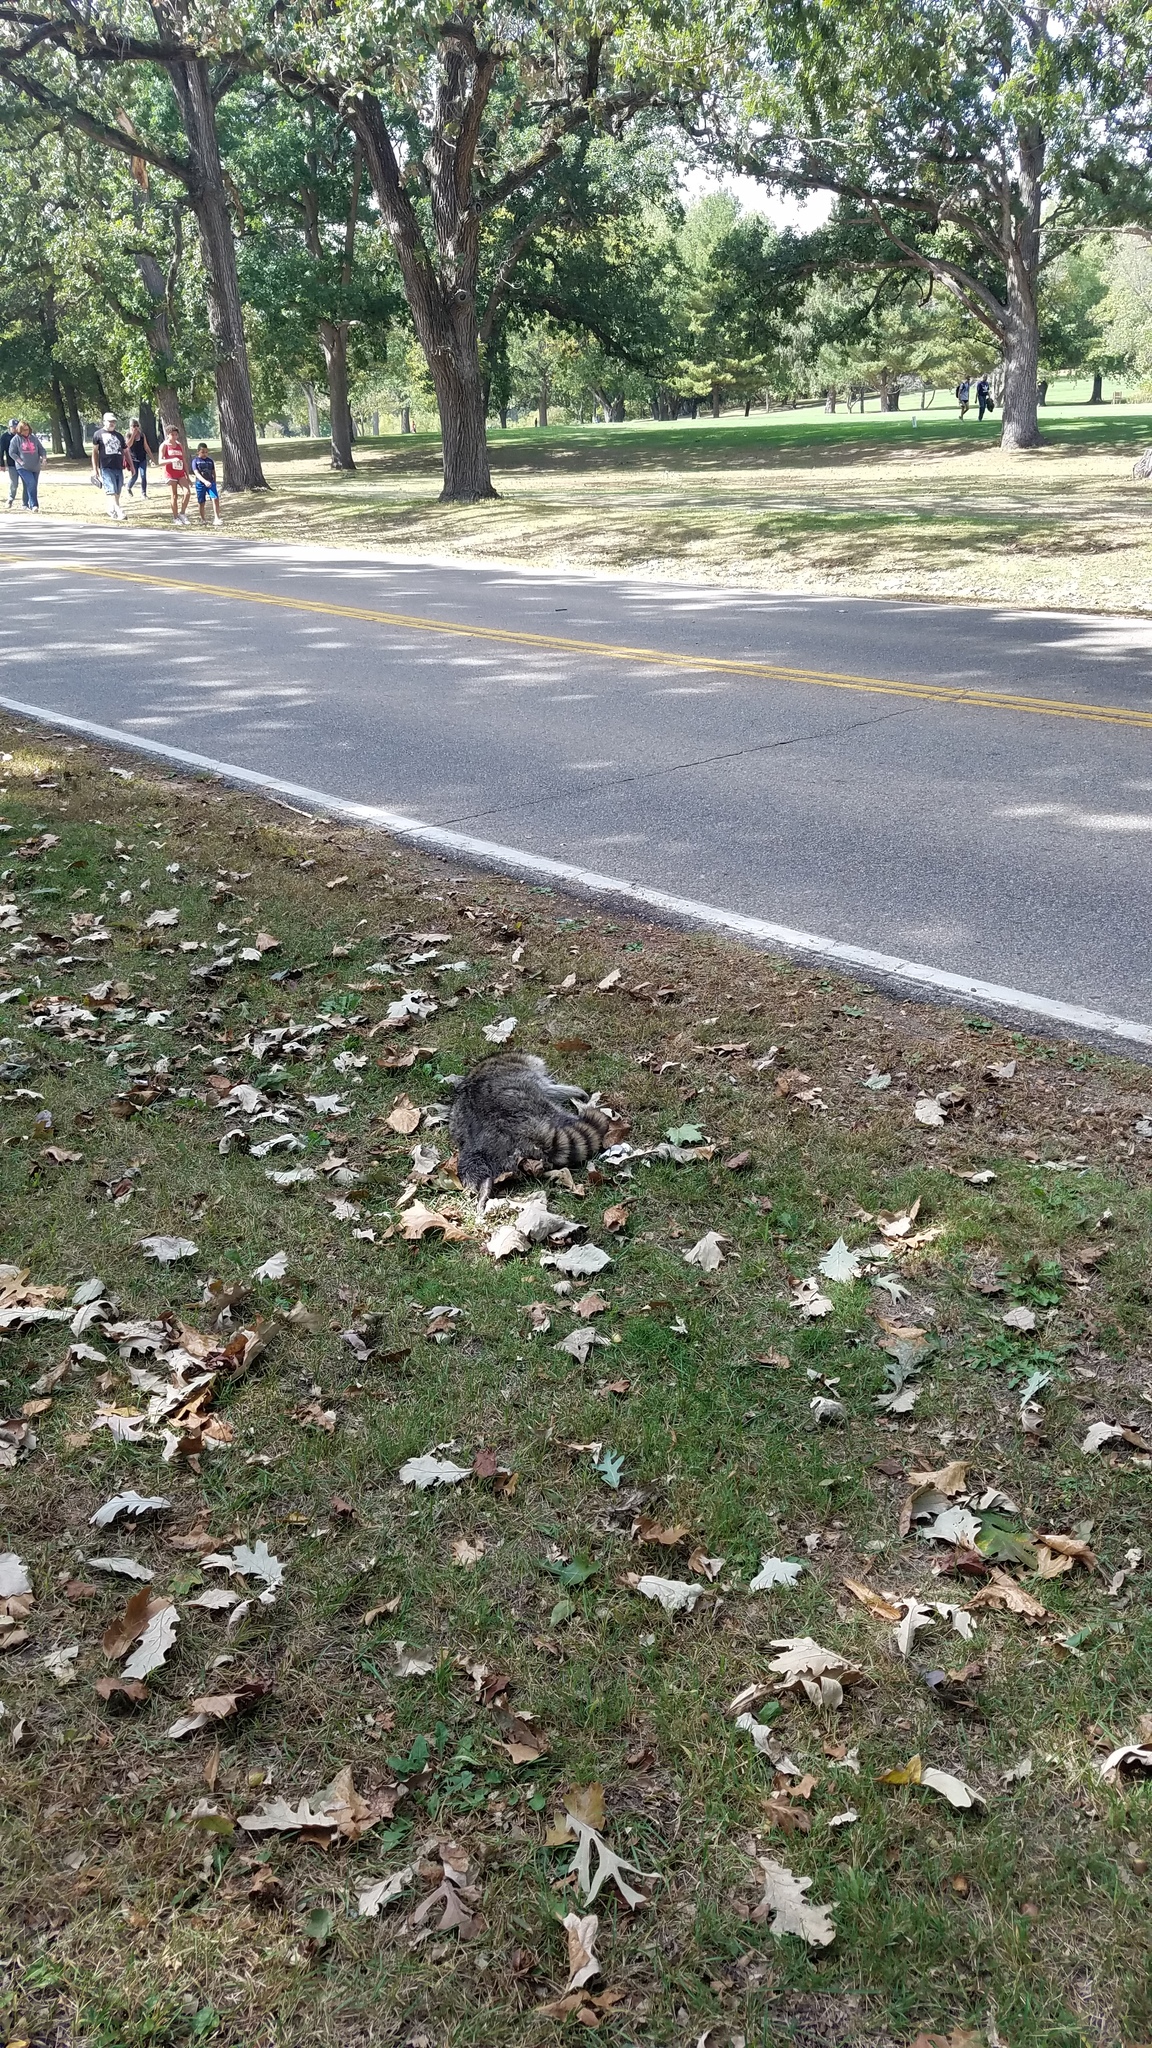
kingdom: Animalia
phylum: Chordata
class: Mammalia
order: Carnivora
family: Procyonidae
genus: Procyon
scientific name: Procyon lotor
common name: Raccoon
